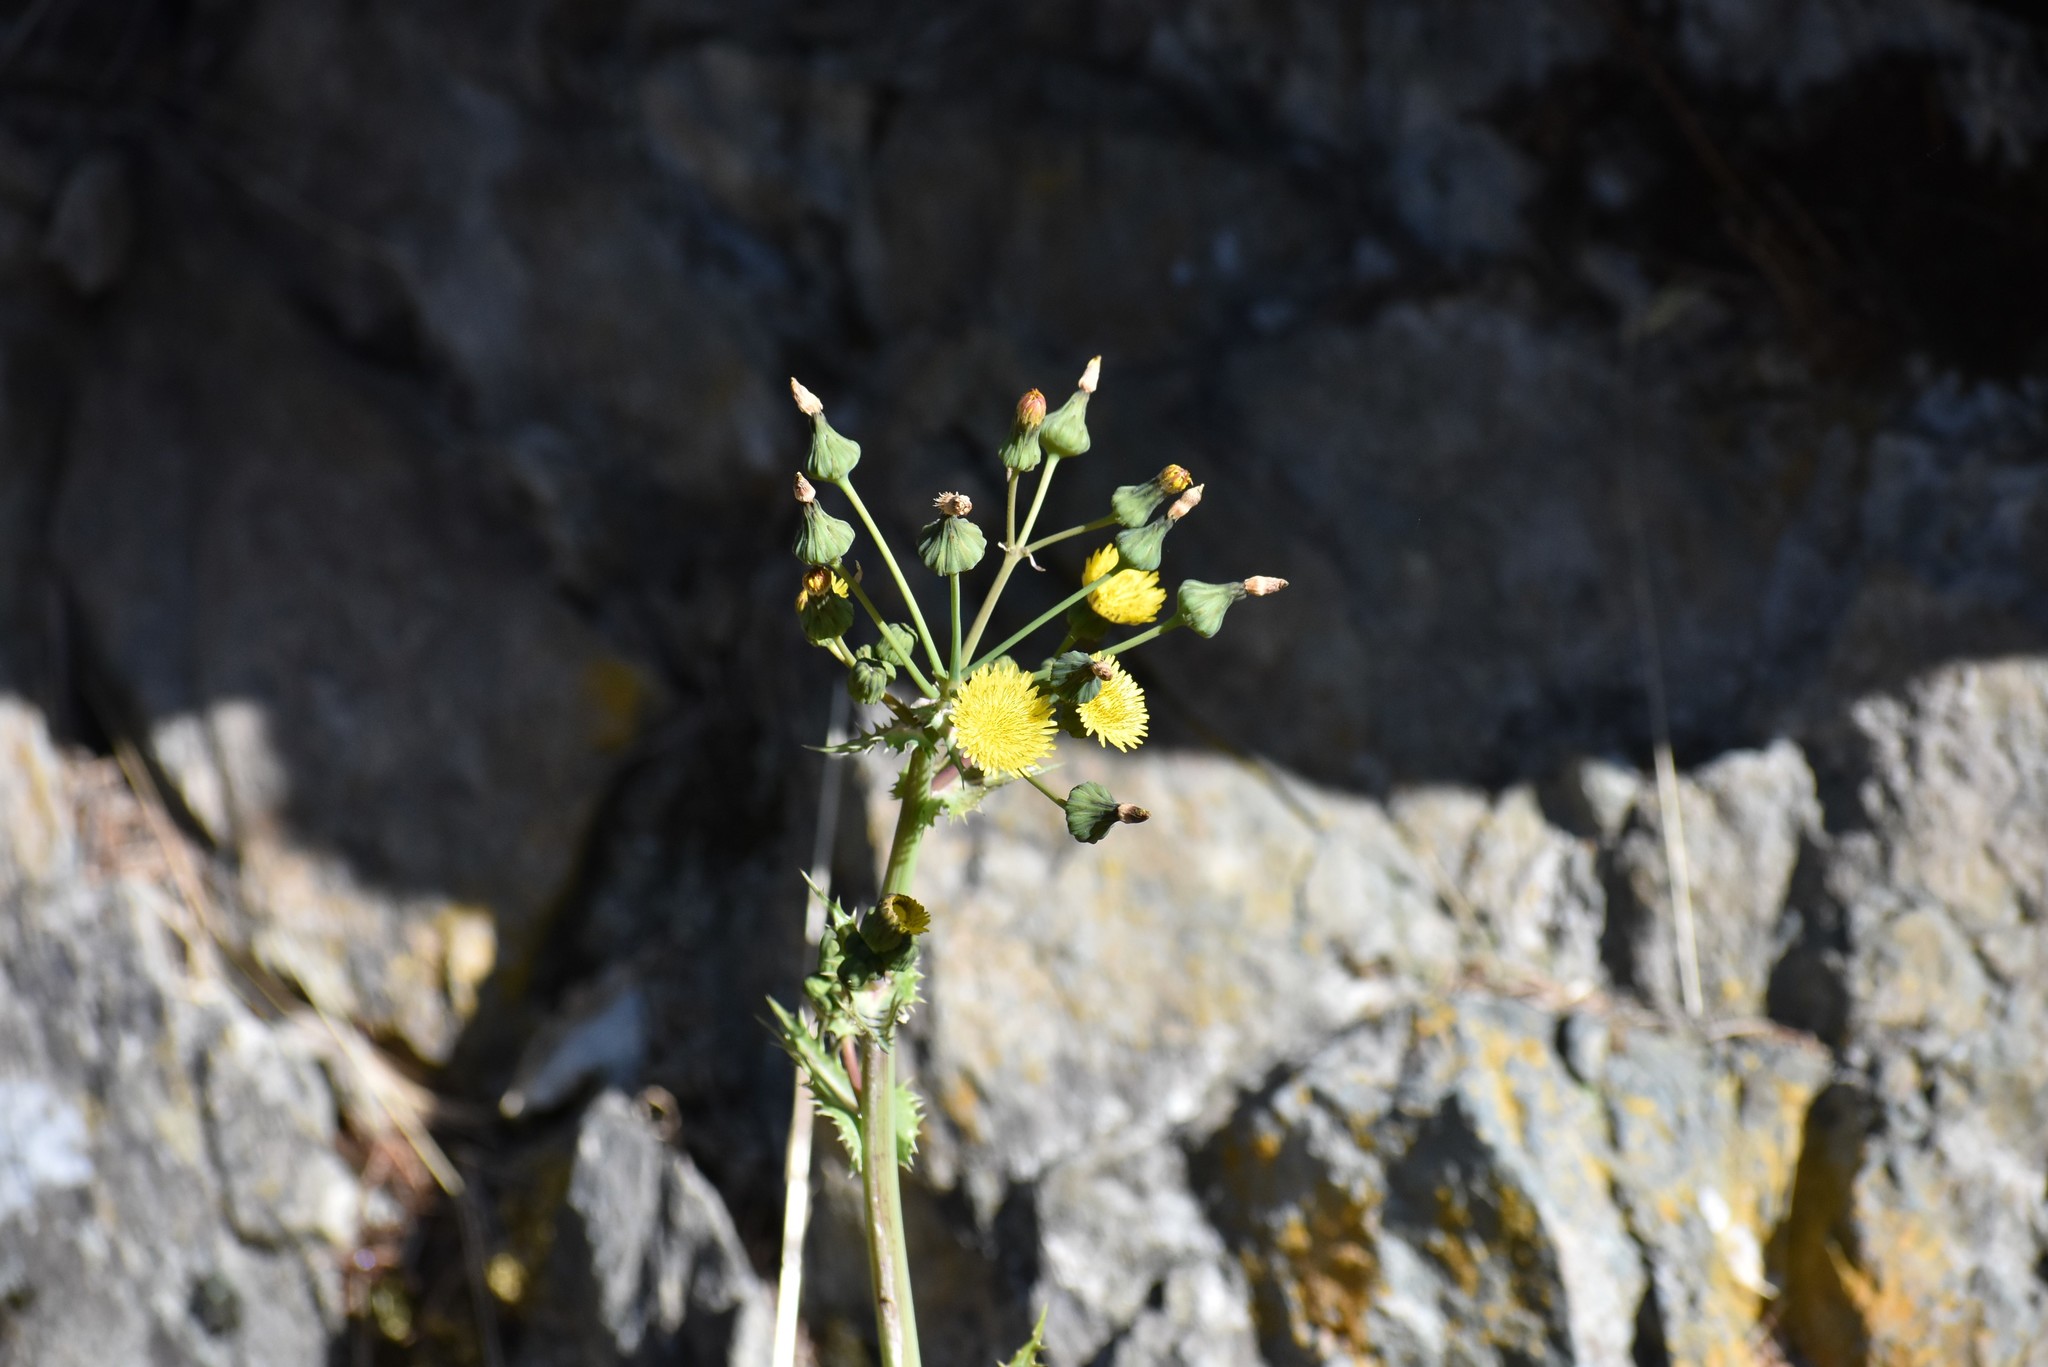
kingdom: Plantae
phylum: Tracheophyta
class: Magnoliopsida
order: Asterales
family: Asteraceae
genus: Sonchus
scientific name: Sonchus asper
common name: Prickly sow-thistle
